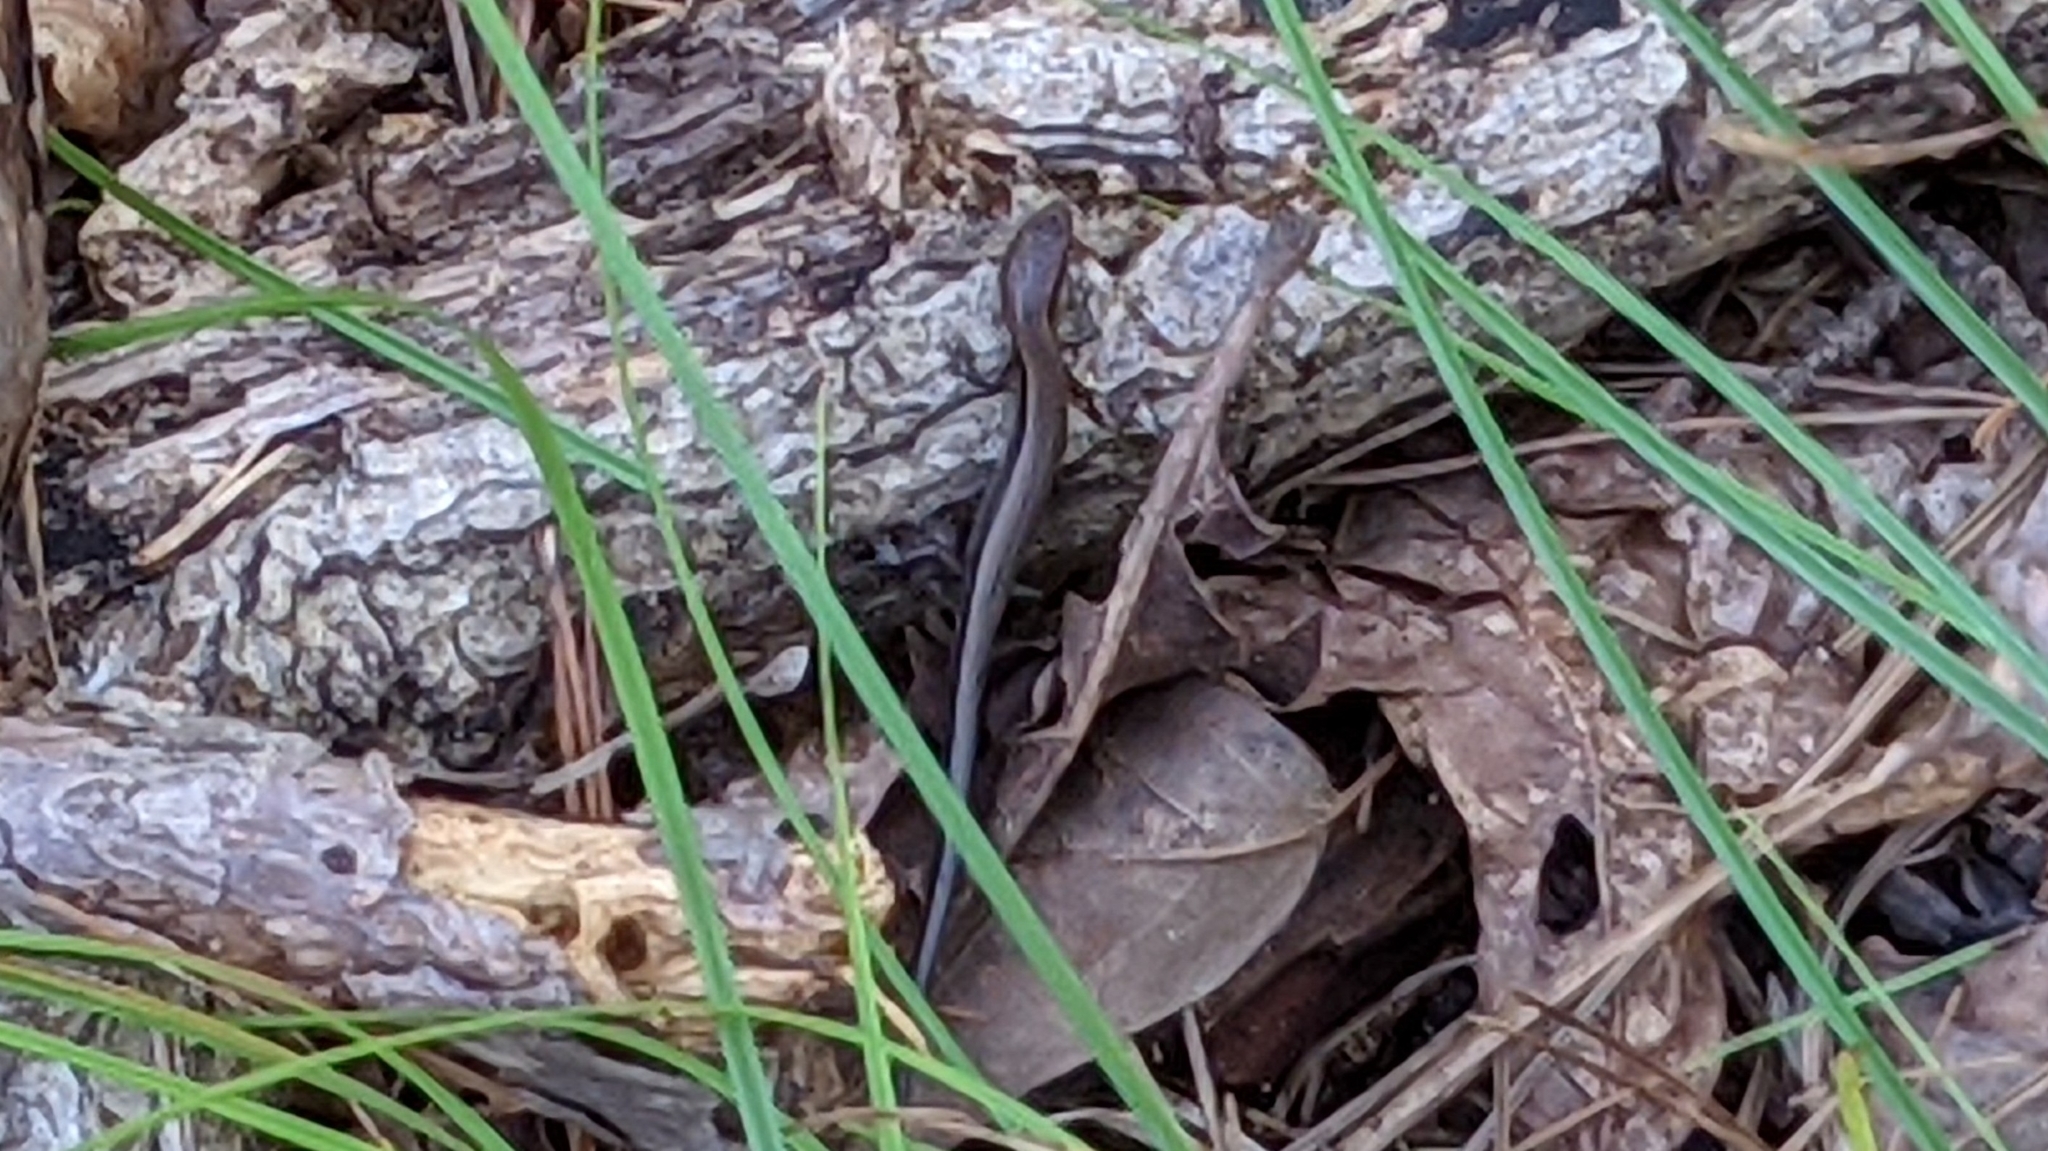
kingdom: Animalia
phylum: Chordata
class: Squamata
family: Scincidae
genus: Scincella
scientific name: Scincella lateralis
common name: Ground skink
